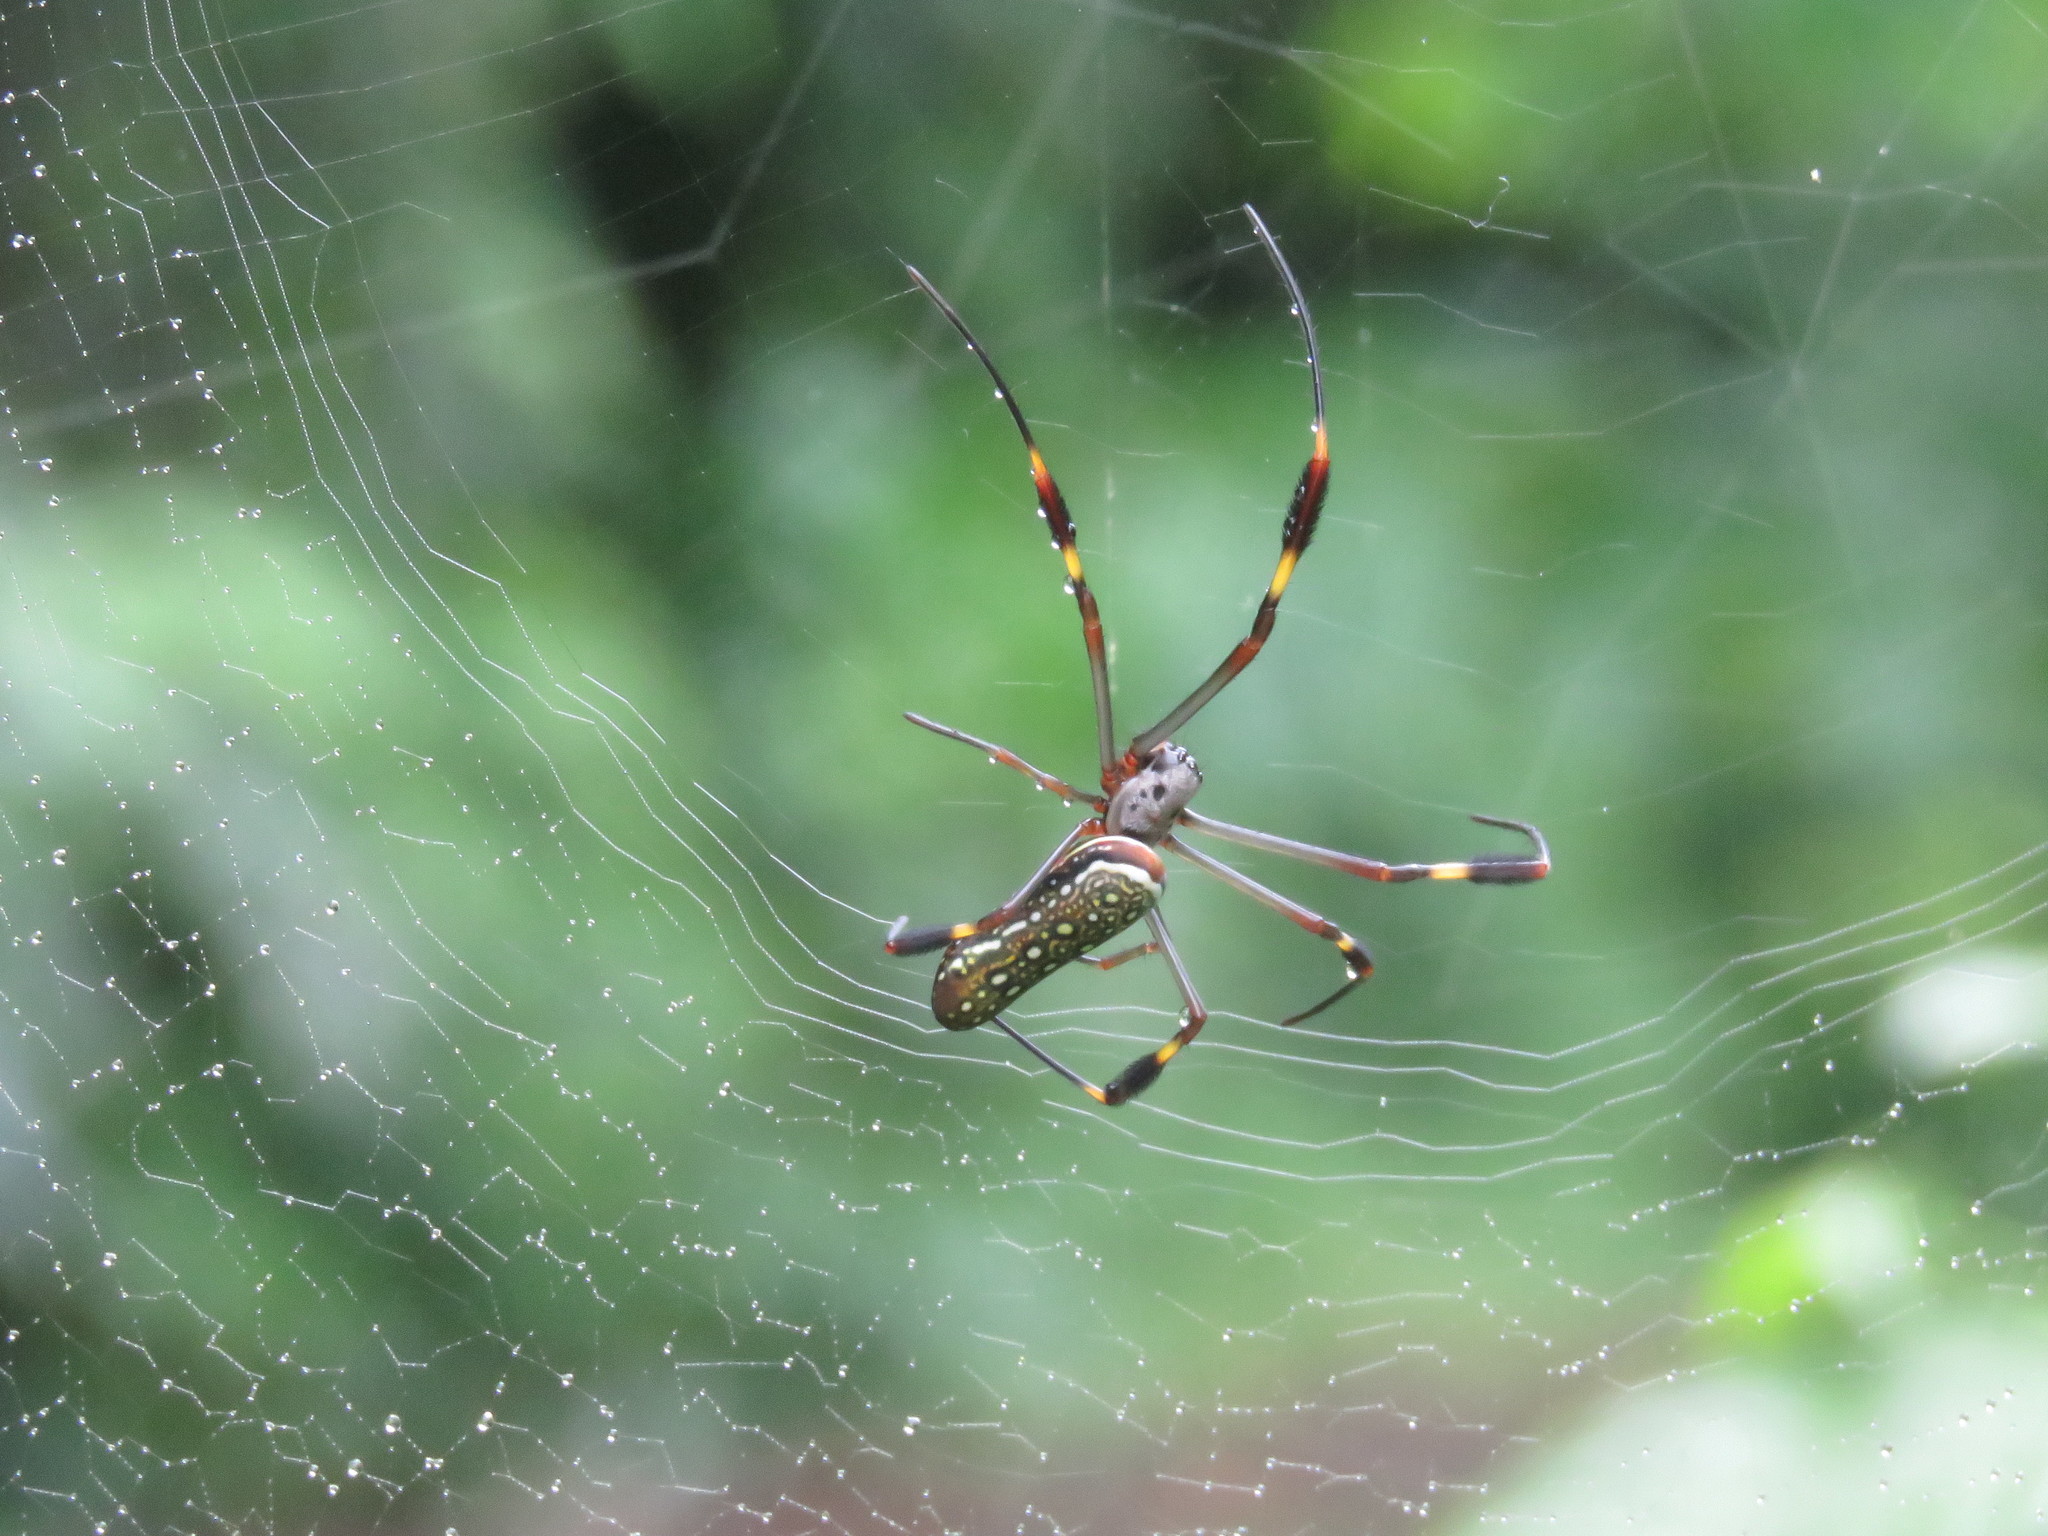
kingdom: Animalia
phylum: Arthropoda
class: Arachnida
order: Araneae
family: Araneidae
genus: Trichonephila
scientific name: Trichonephila clavipes
